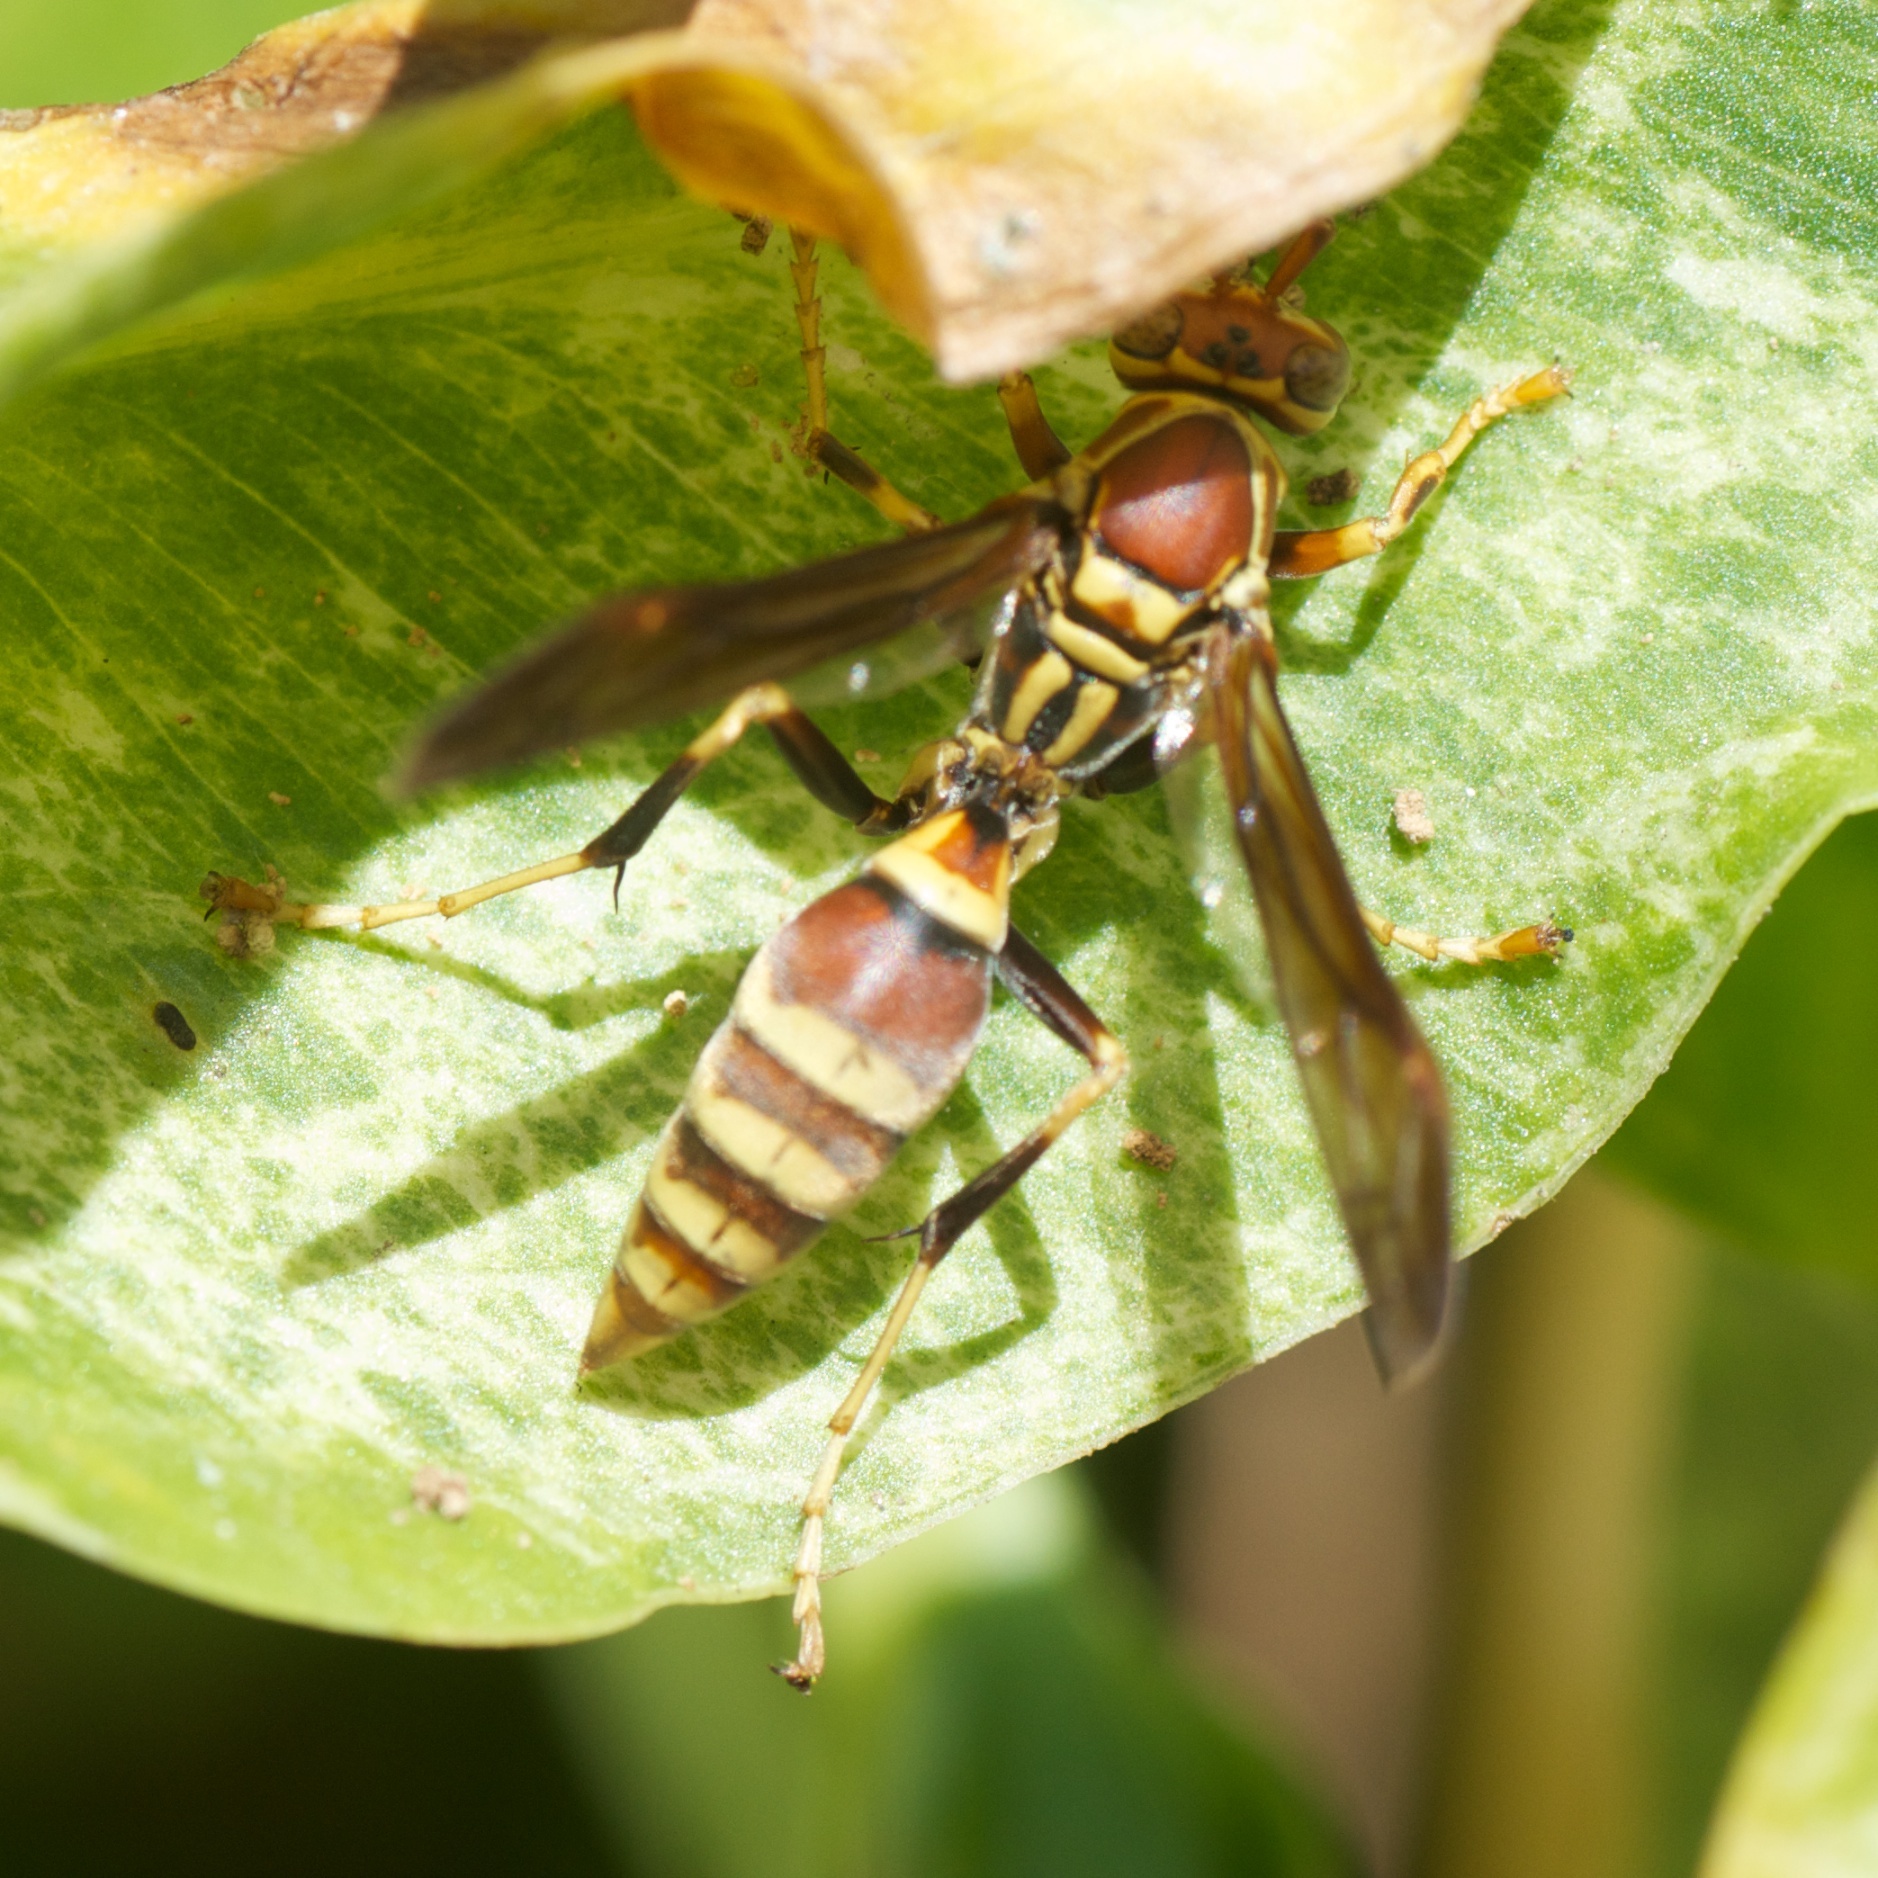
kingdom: Animalia
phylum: Arthropoda
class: Insecta
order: Hymenoptera
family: Eumenidae
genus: Polistes
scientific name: Polistes exclamans
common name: Paper wasp
